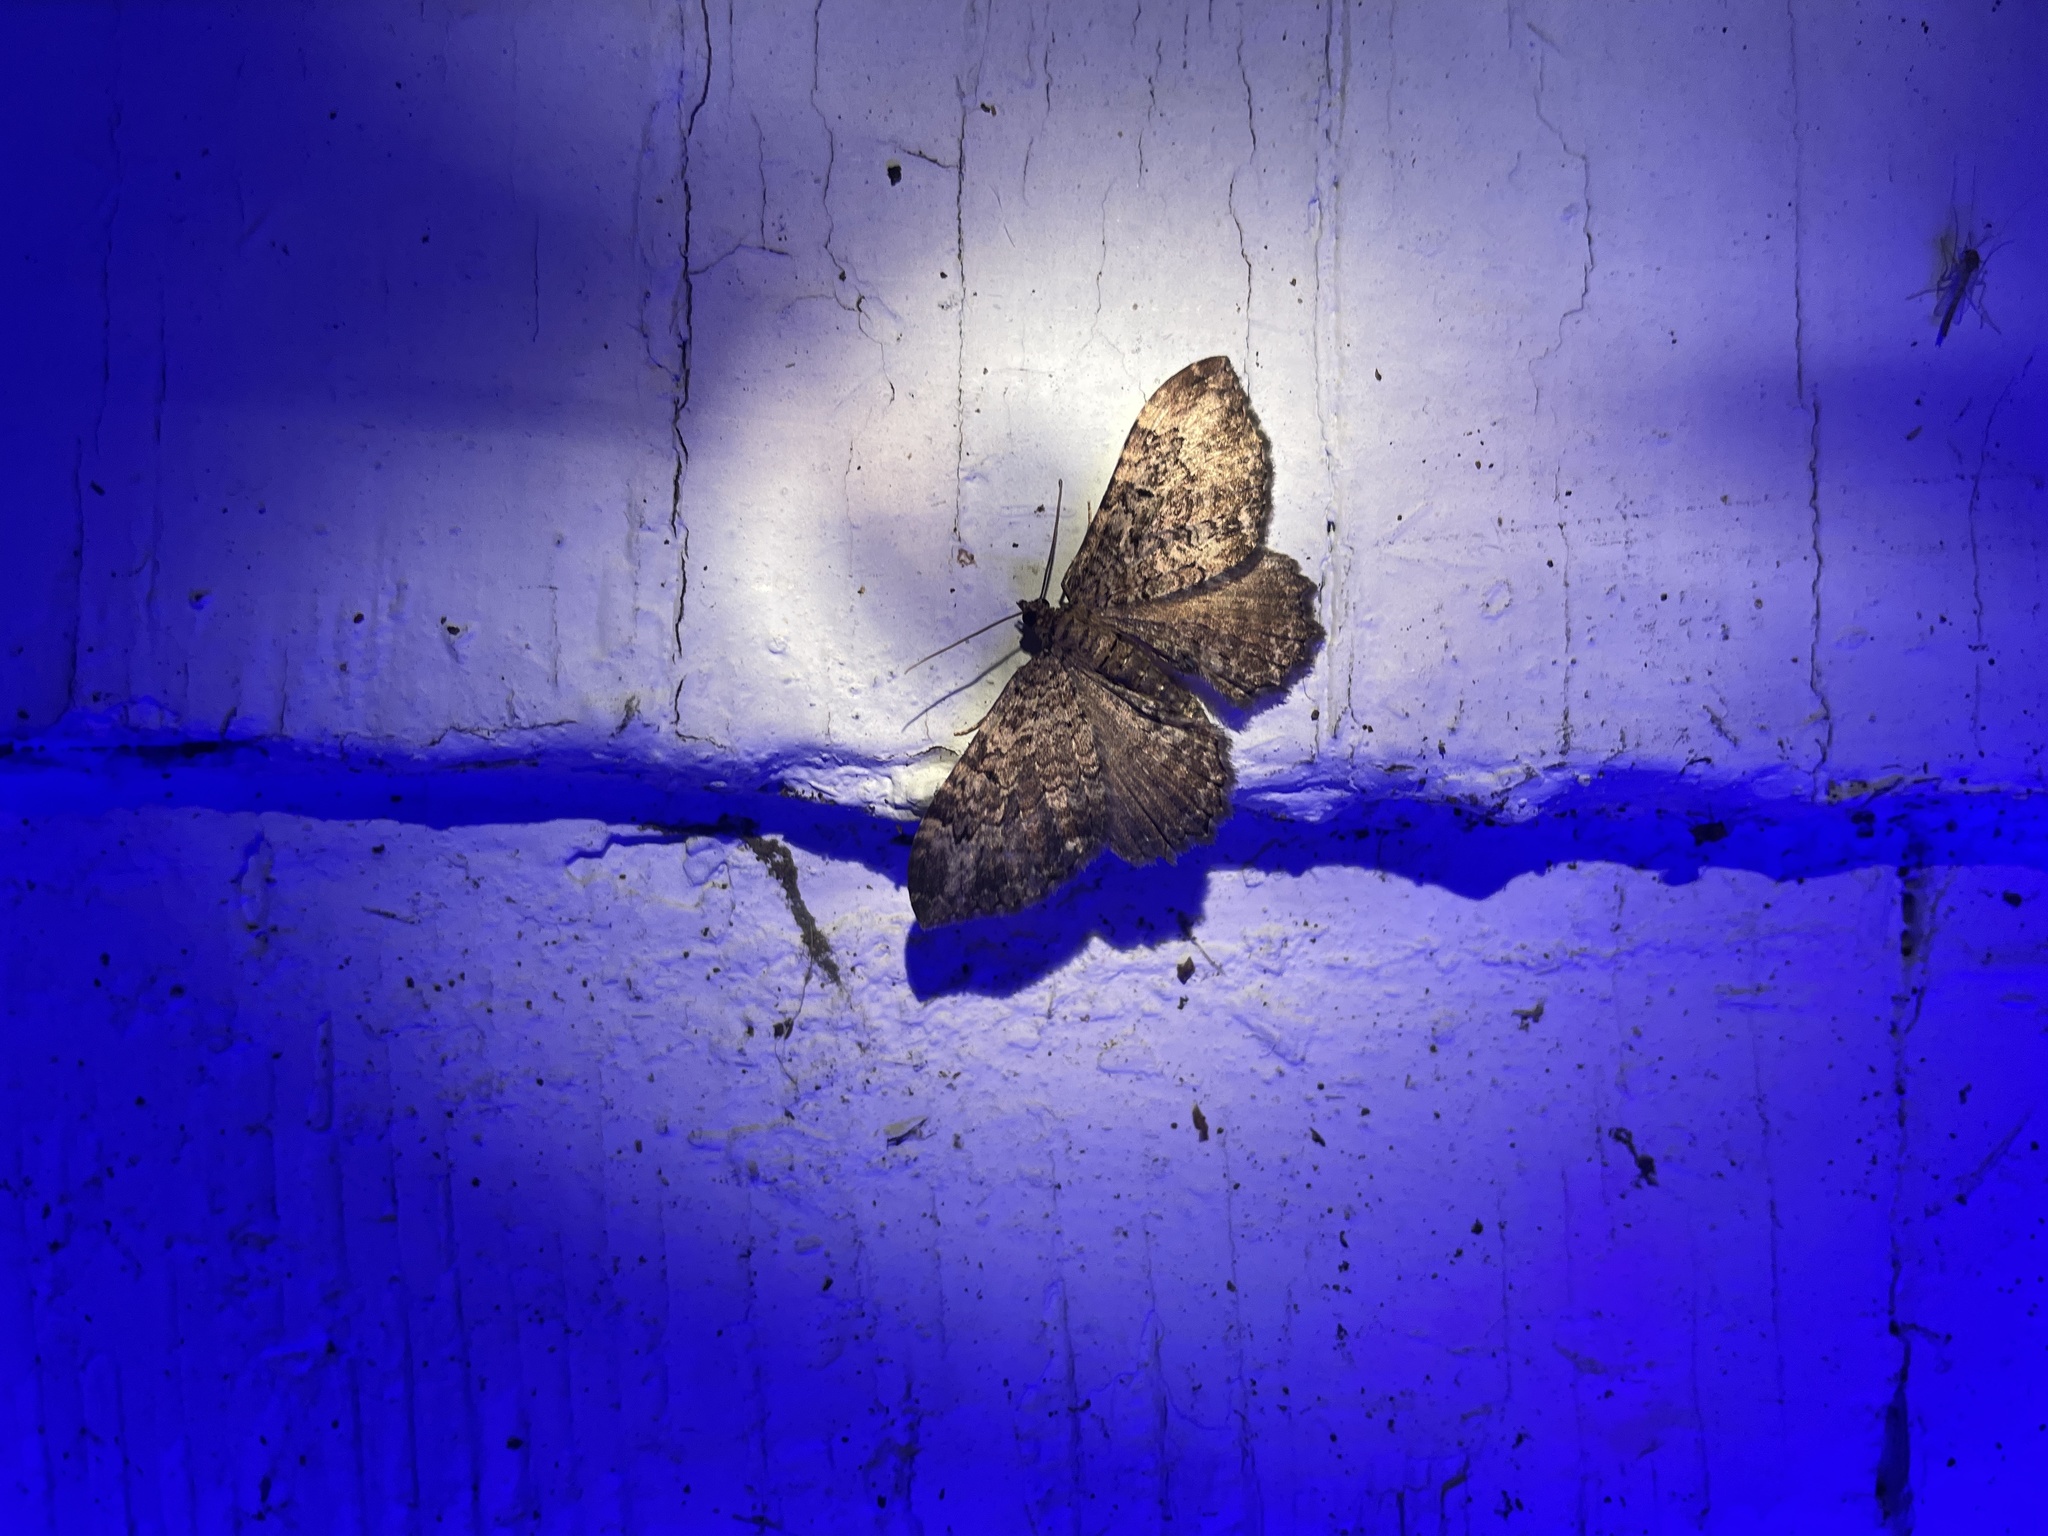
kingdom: Animalia
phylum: Arthropoda
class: Insecta
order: Lepidoptera
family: Geometridae
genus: Rheumaptera
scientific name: Rheumaptera
